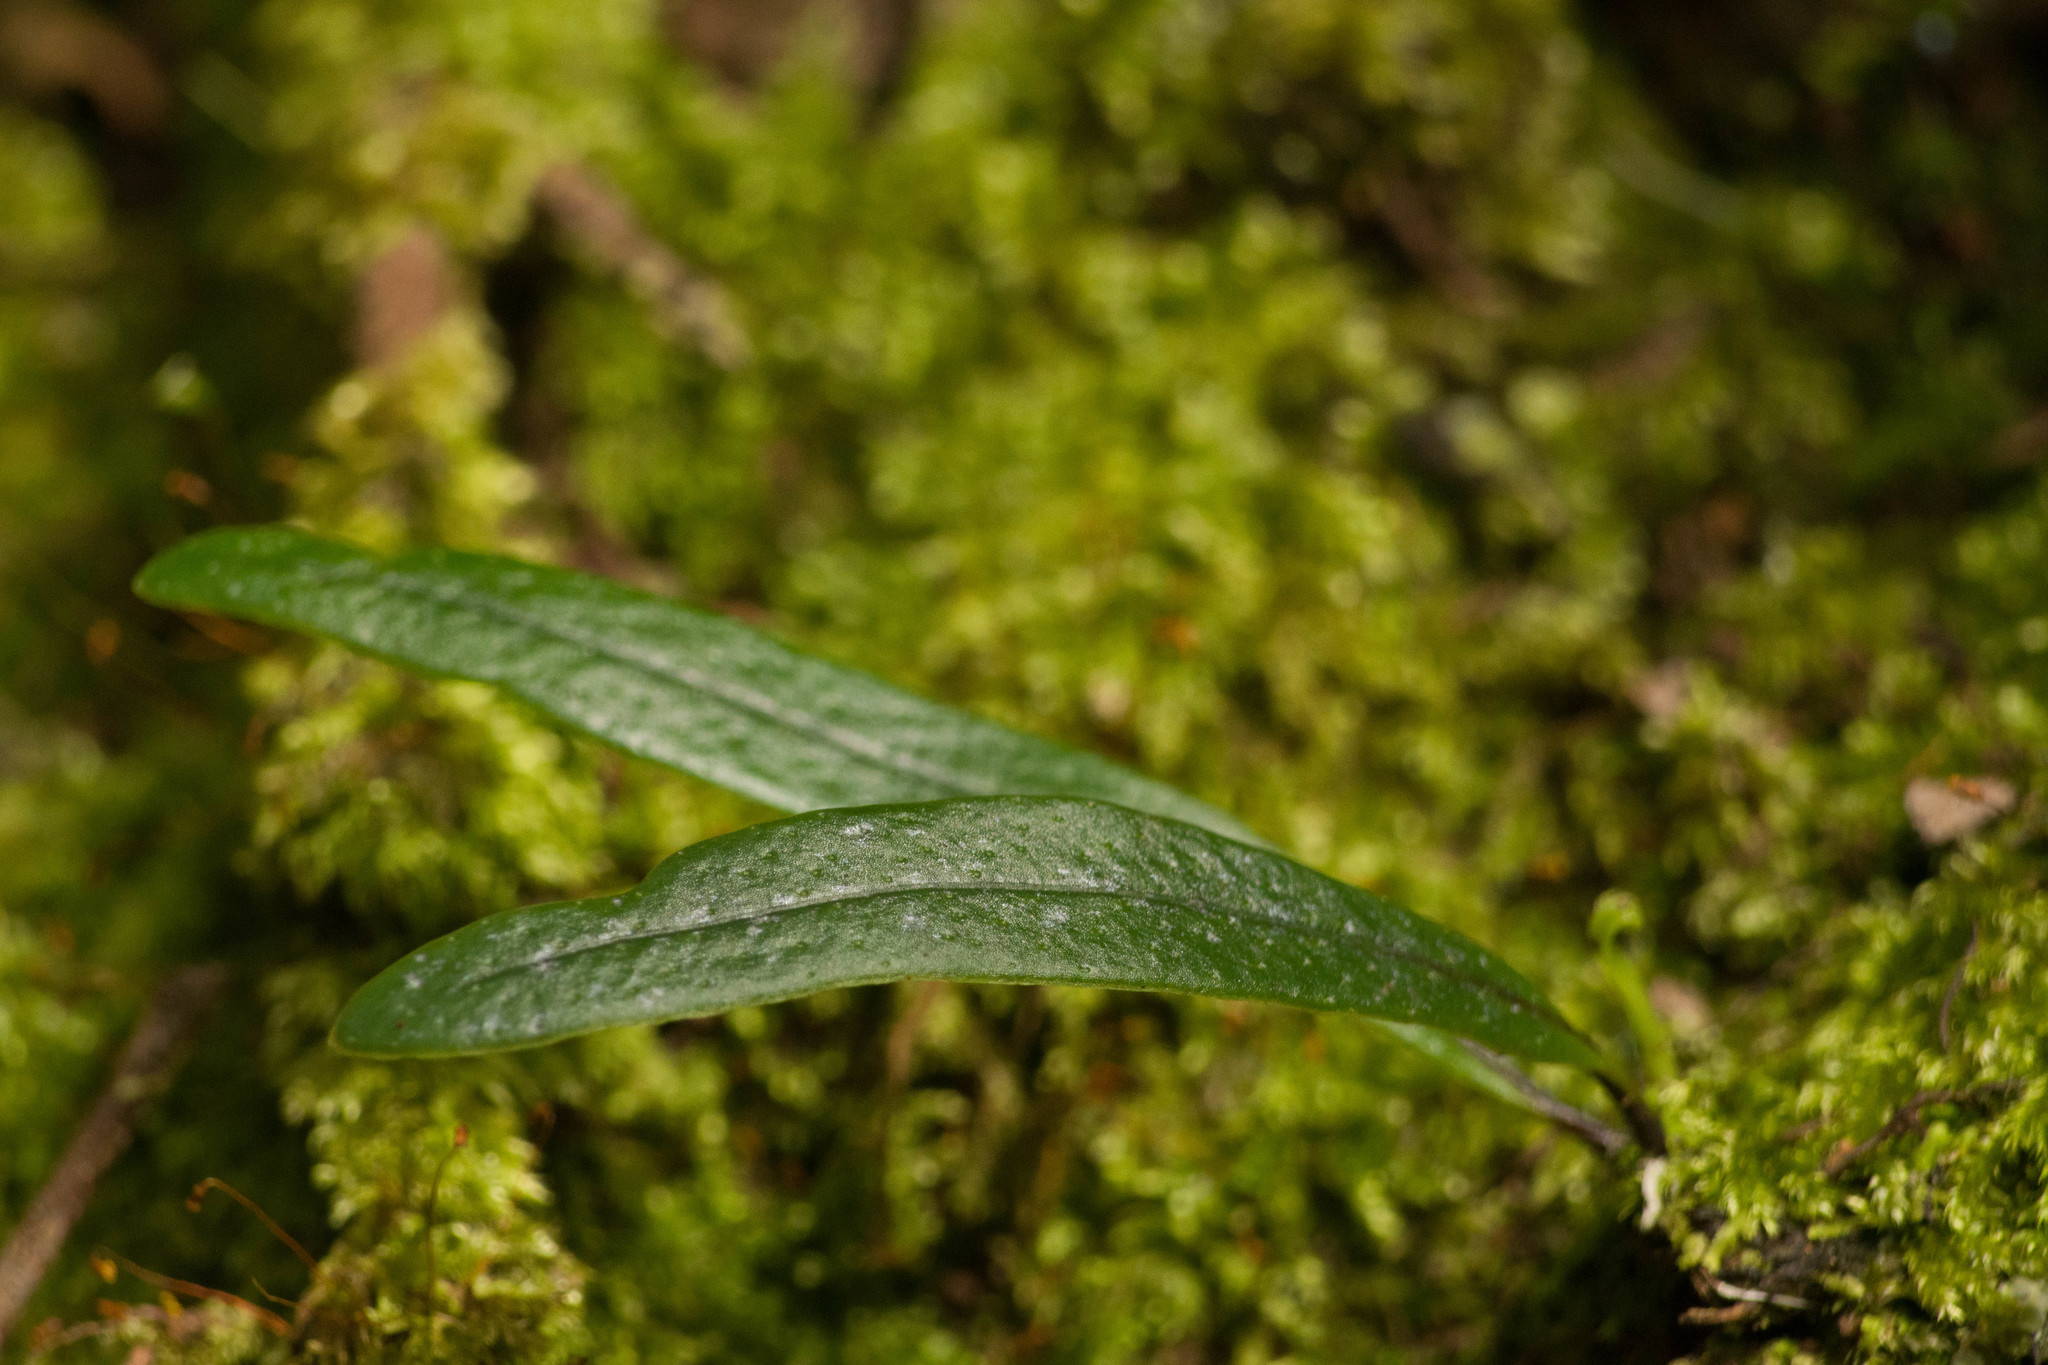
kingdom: Plantae
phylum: Tracheophyta
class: Polypodiopsida
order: Polypodiales
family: Polypodiaceae
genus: Lepisorus
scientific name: Lepisorus thunbergianus
